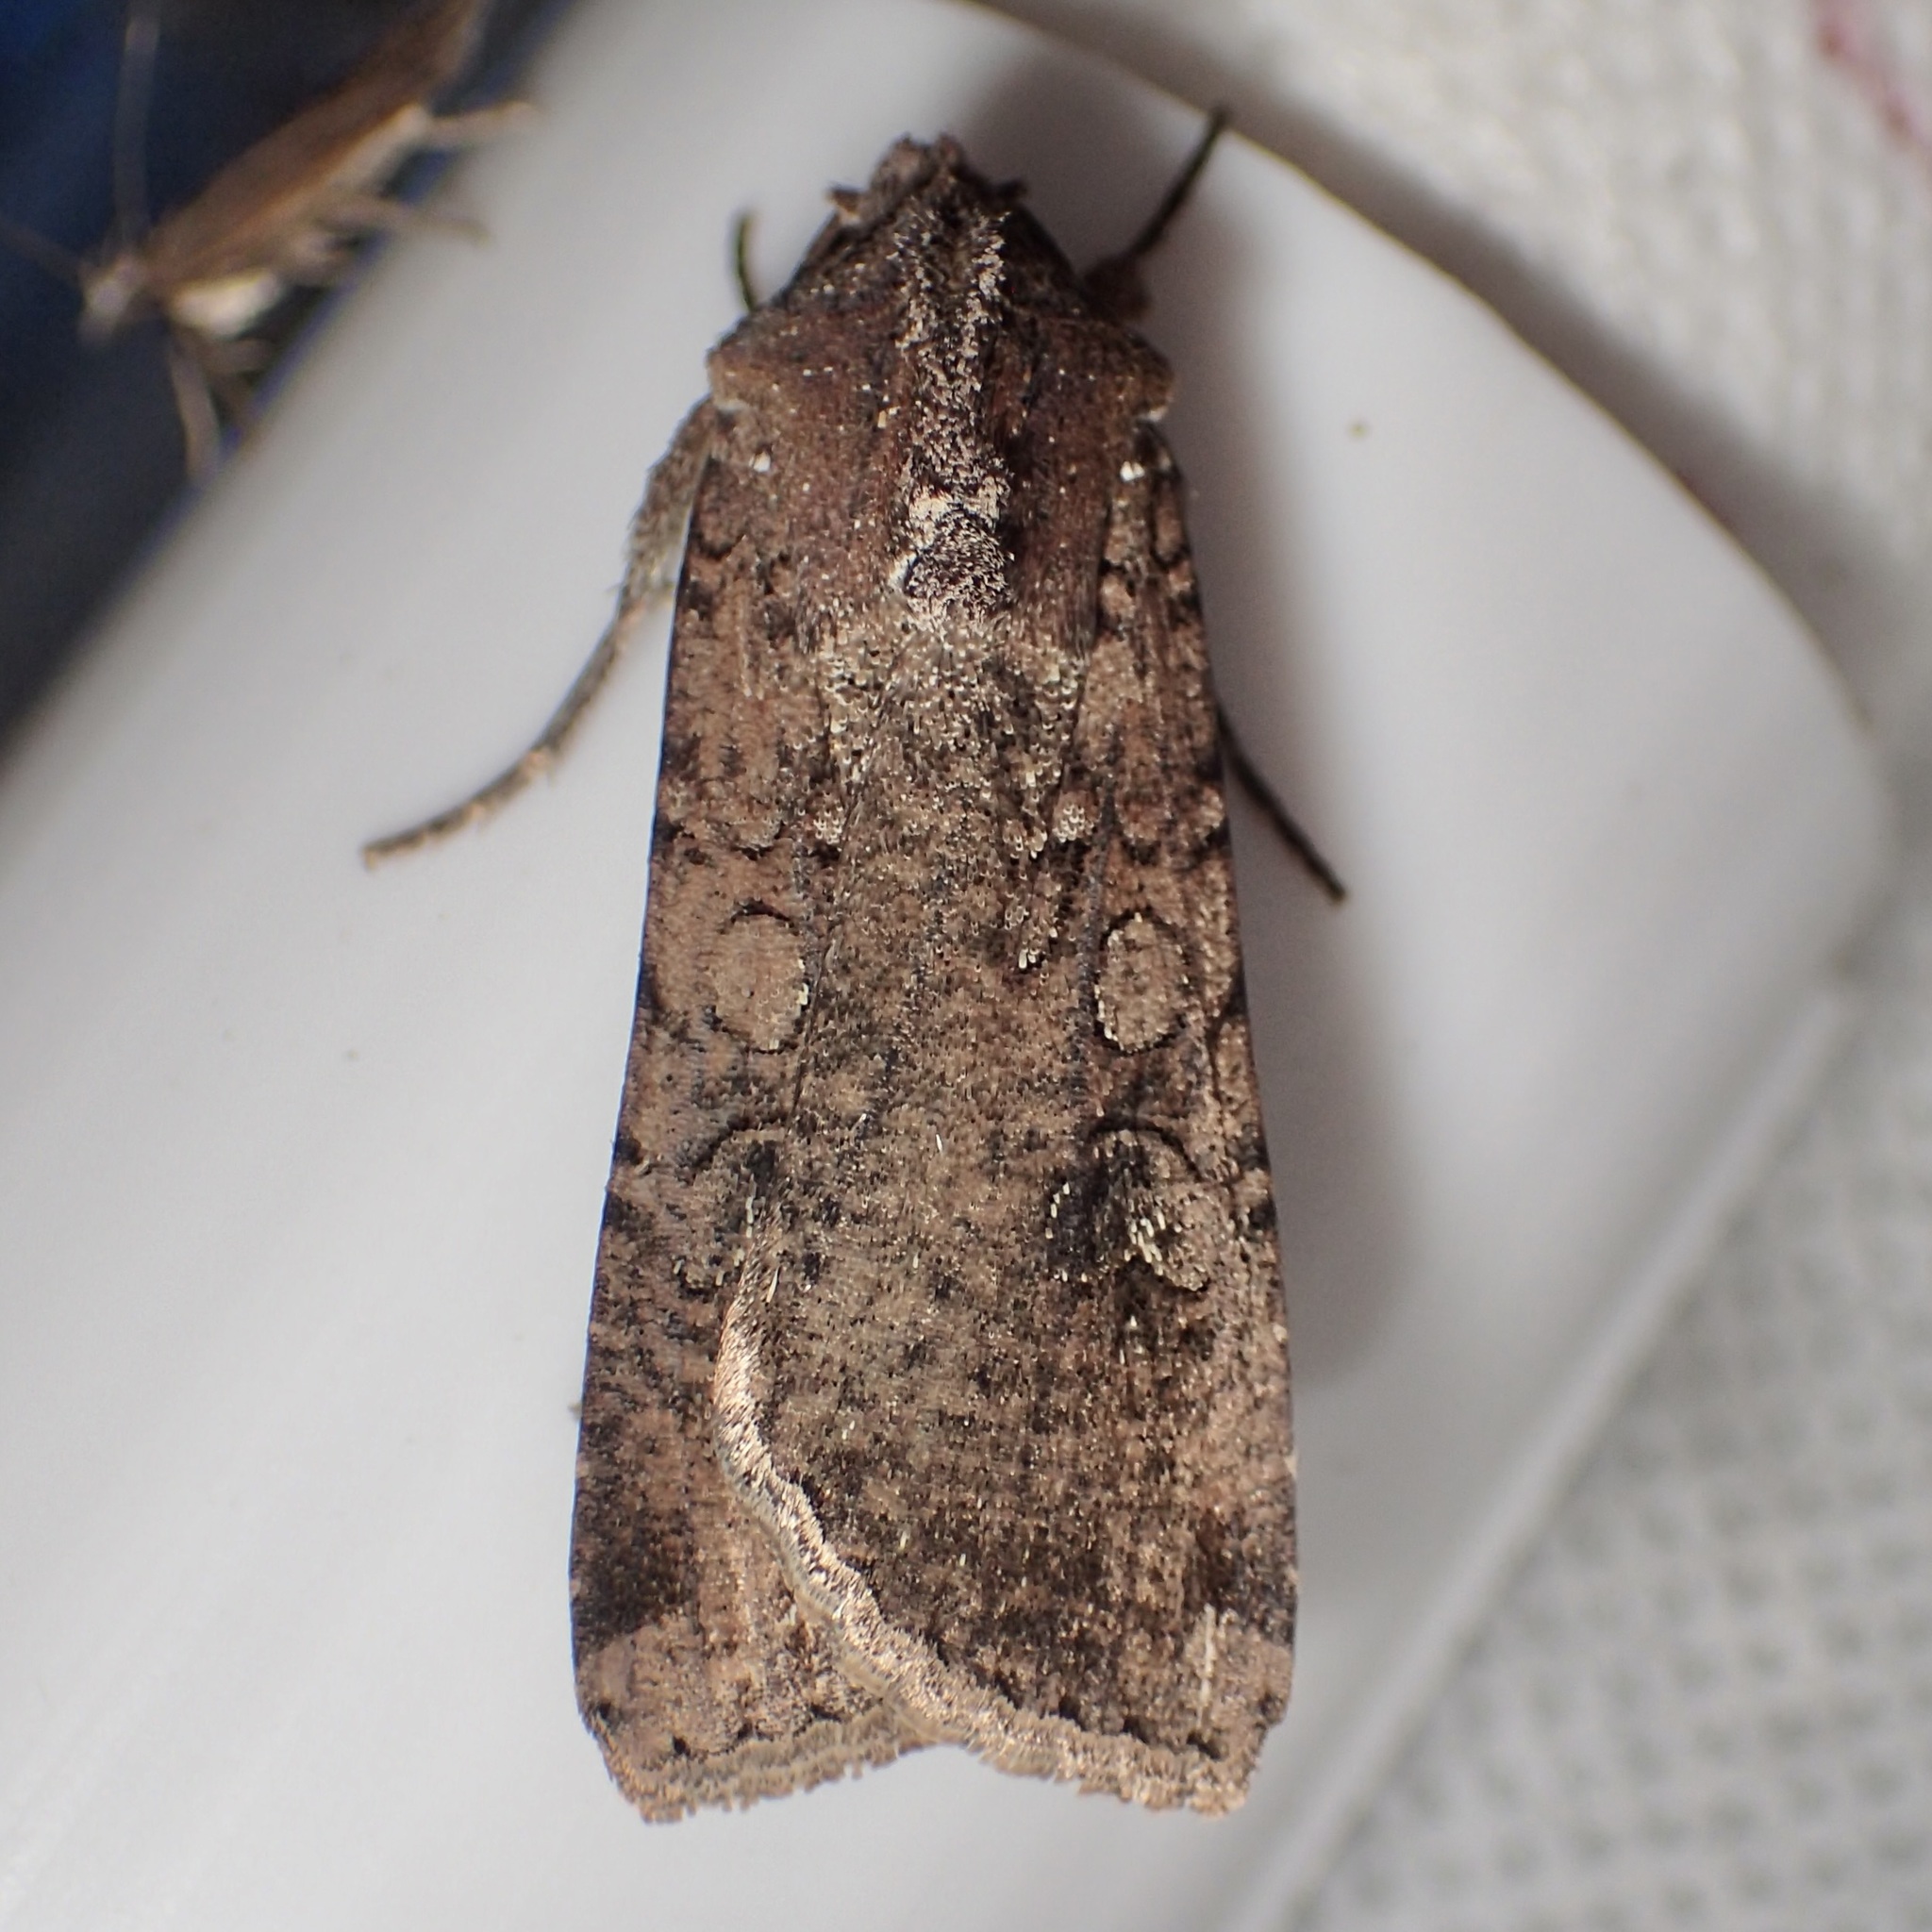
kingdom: Animalia
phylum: Arthropoda
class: Insecta
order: Lepidoptera
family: Noctuidae
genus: Peridroma
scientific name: Peridroma saucia
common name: Pearly underwing
